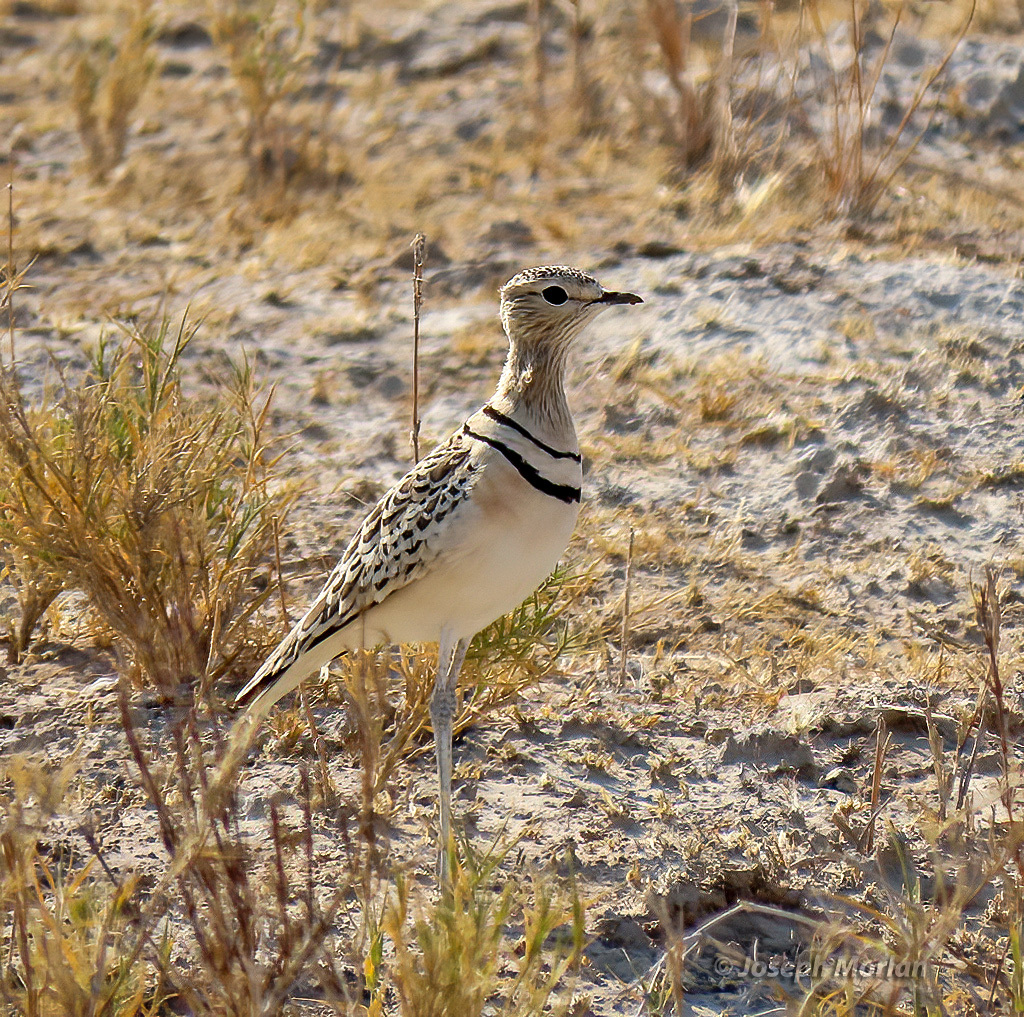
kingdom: Animalia
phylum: Chordata
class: Aves
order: Charadriiformes
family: Glareolidae
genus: Rhinoptilus
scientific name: Rhinoptilus africanus
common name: Double-banded courser
